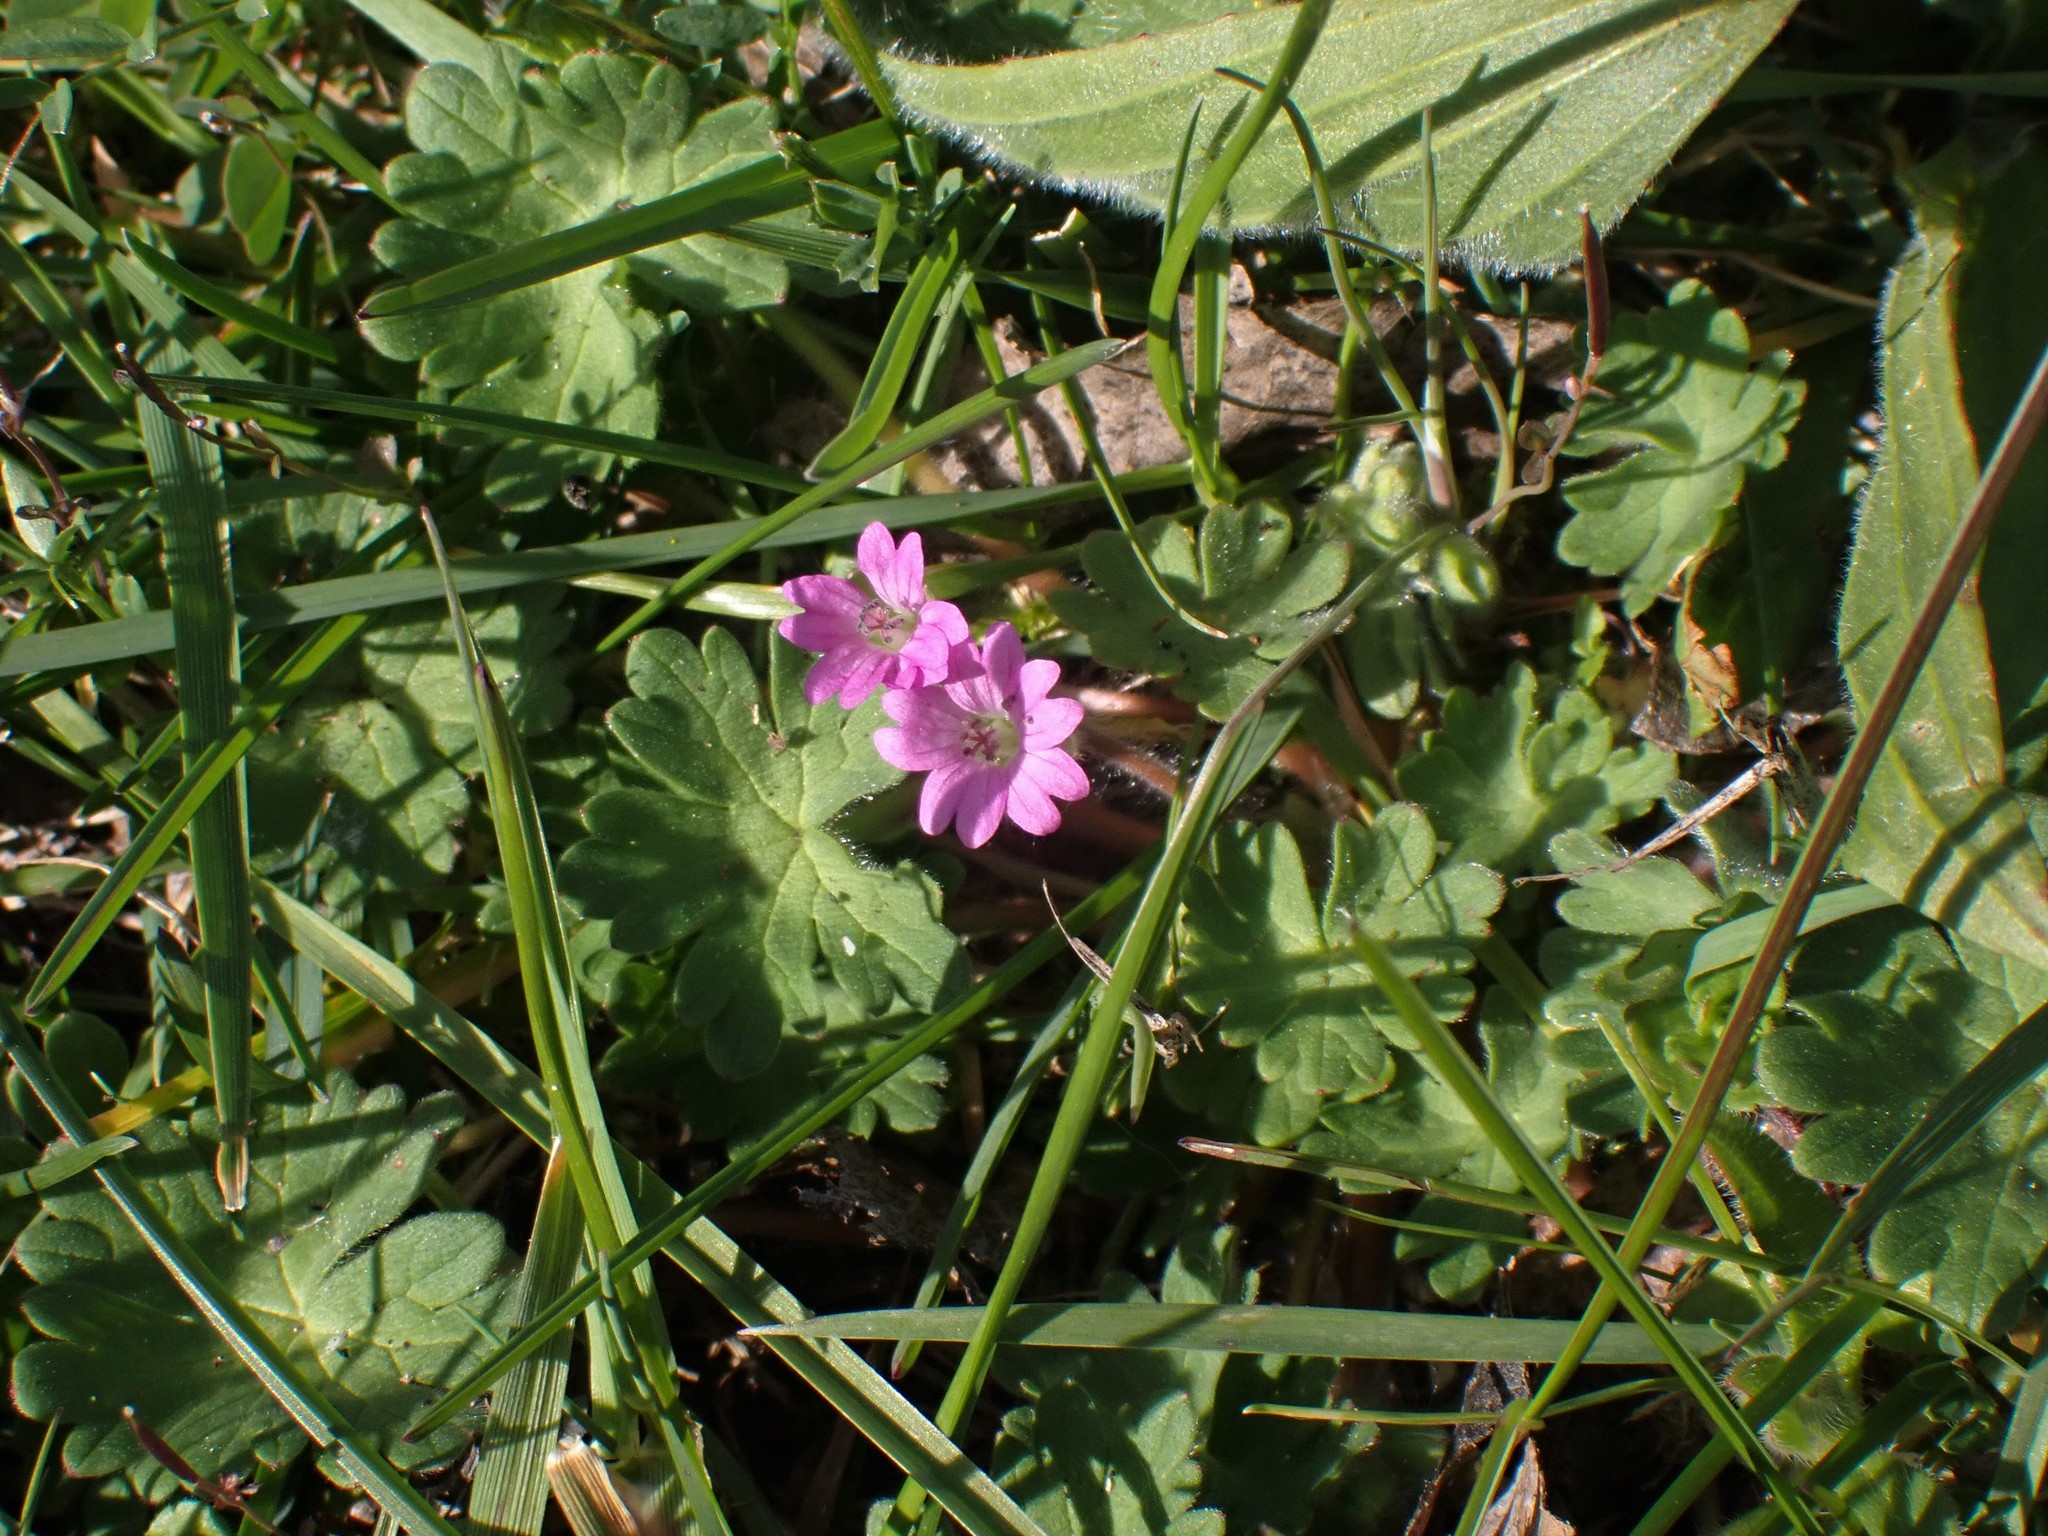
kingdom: Plantae
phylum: Tracheophyta
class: Magnoliopsida
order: Geraniales
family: Geraniaceae
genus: Geranium
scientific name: Geranium molle
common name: Dove's-foot crane's-bill
